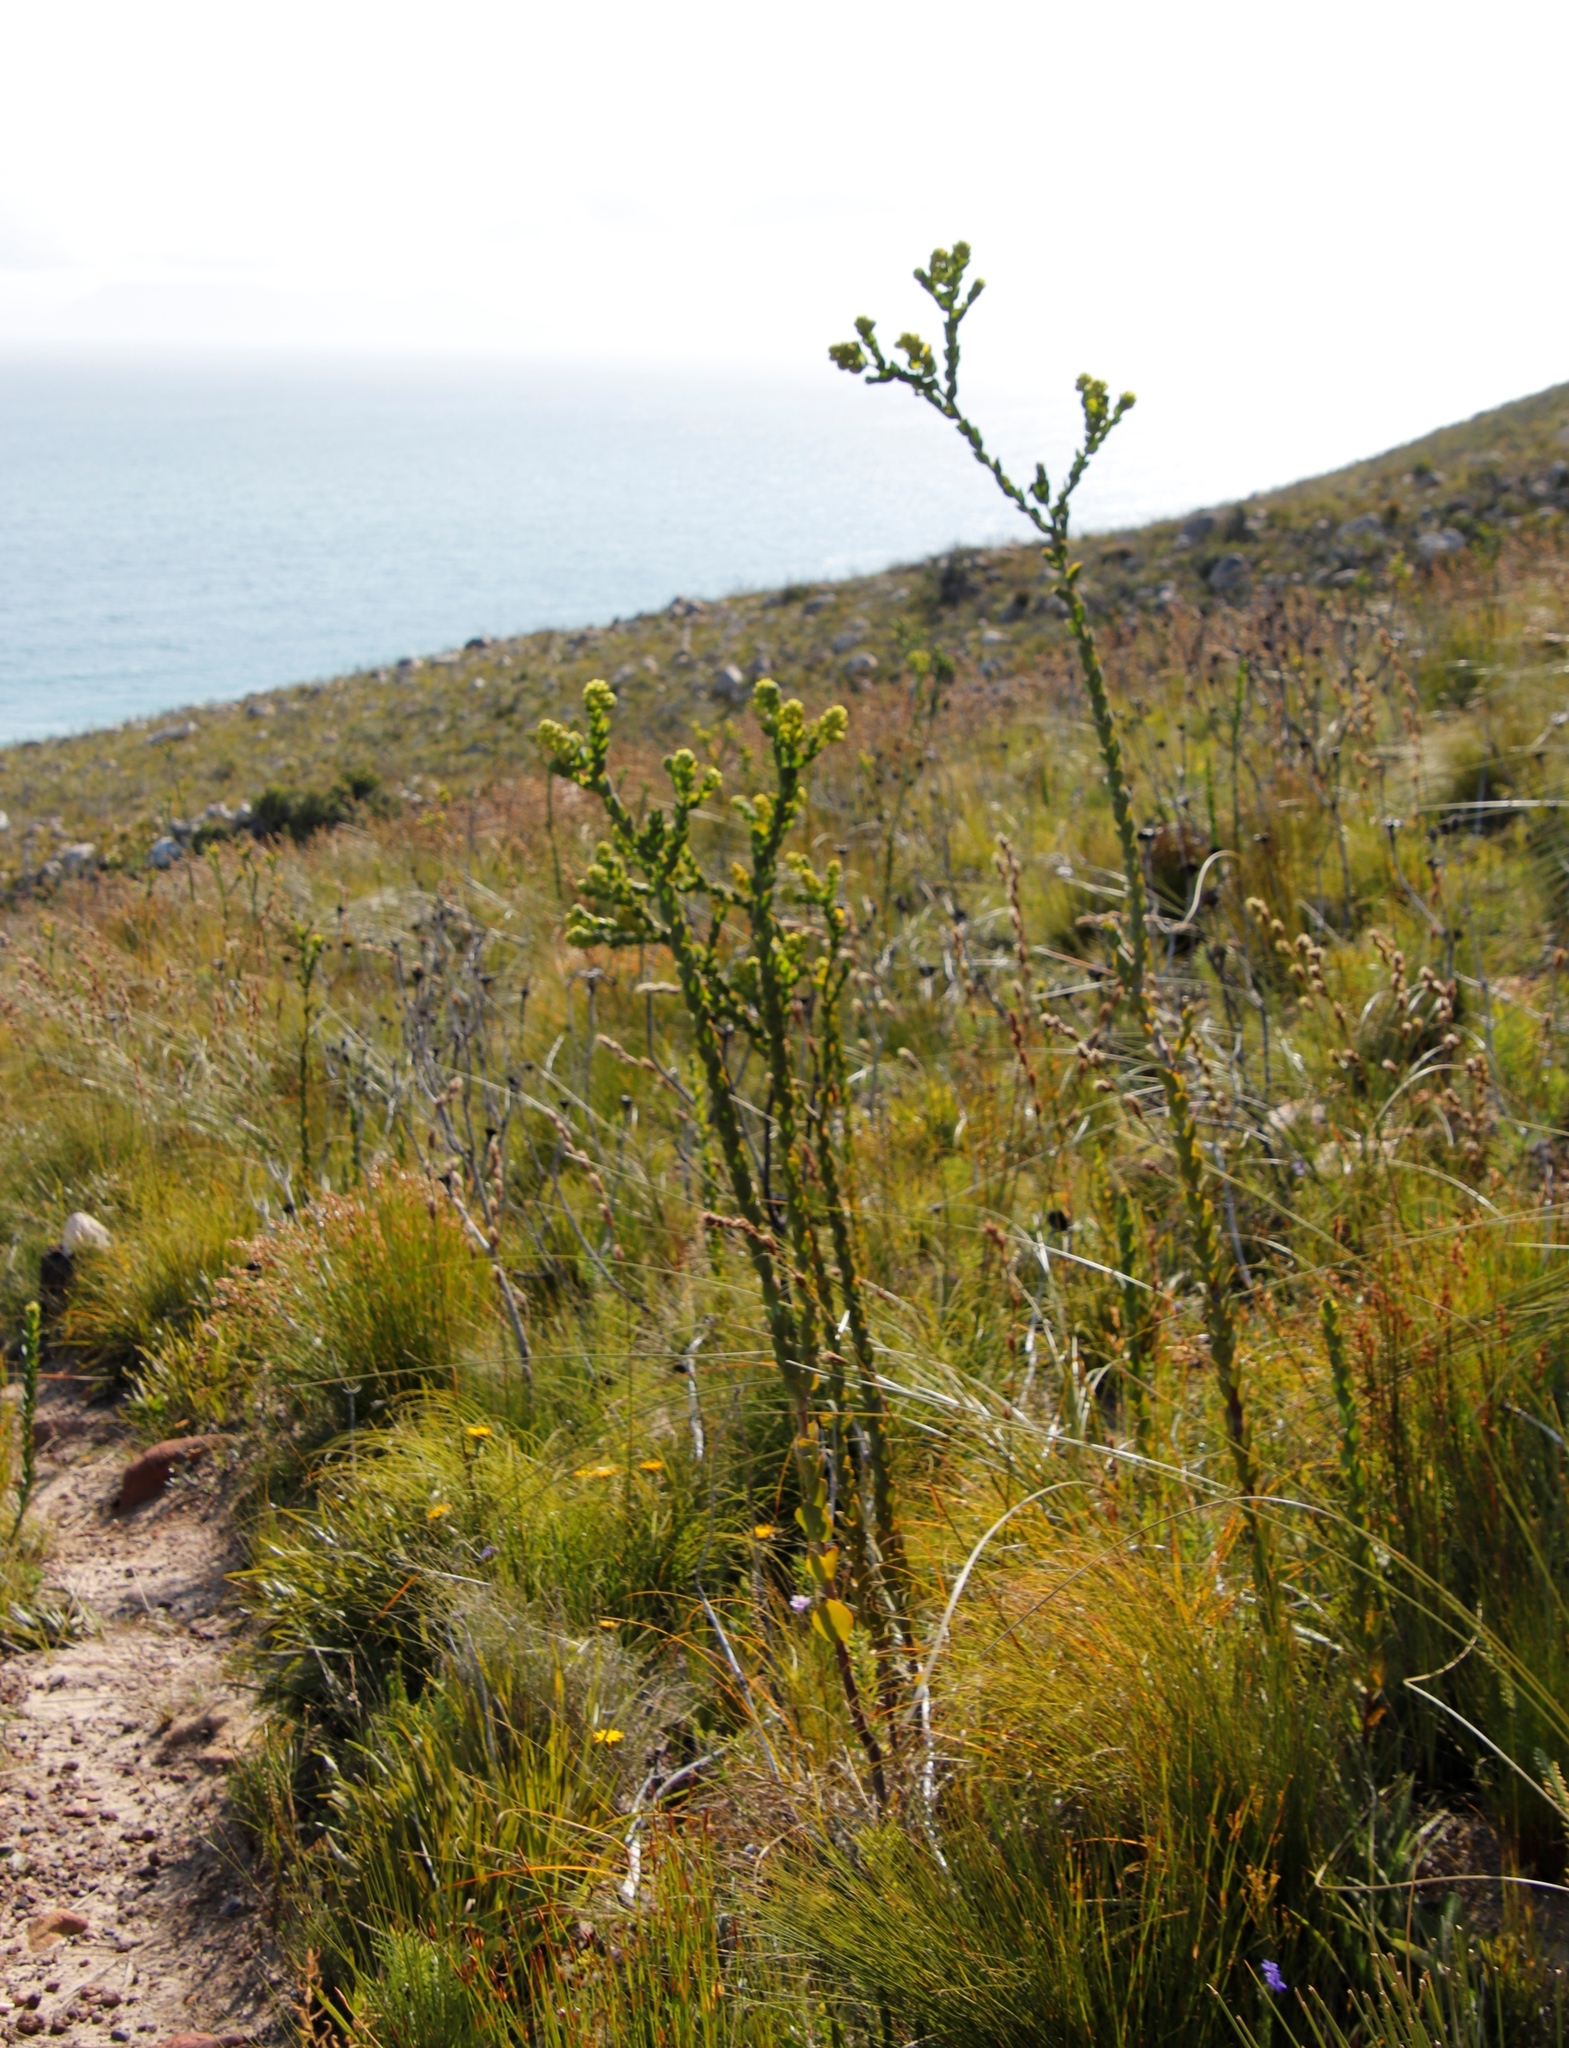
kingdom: Plantae
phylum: Tracheophyta
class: Magnoliopsida
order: Santalales
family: Thesiaceae
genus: Thesium
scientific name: Thesium euphorbioides
